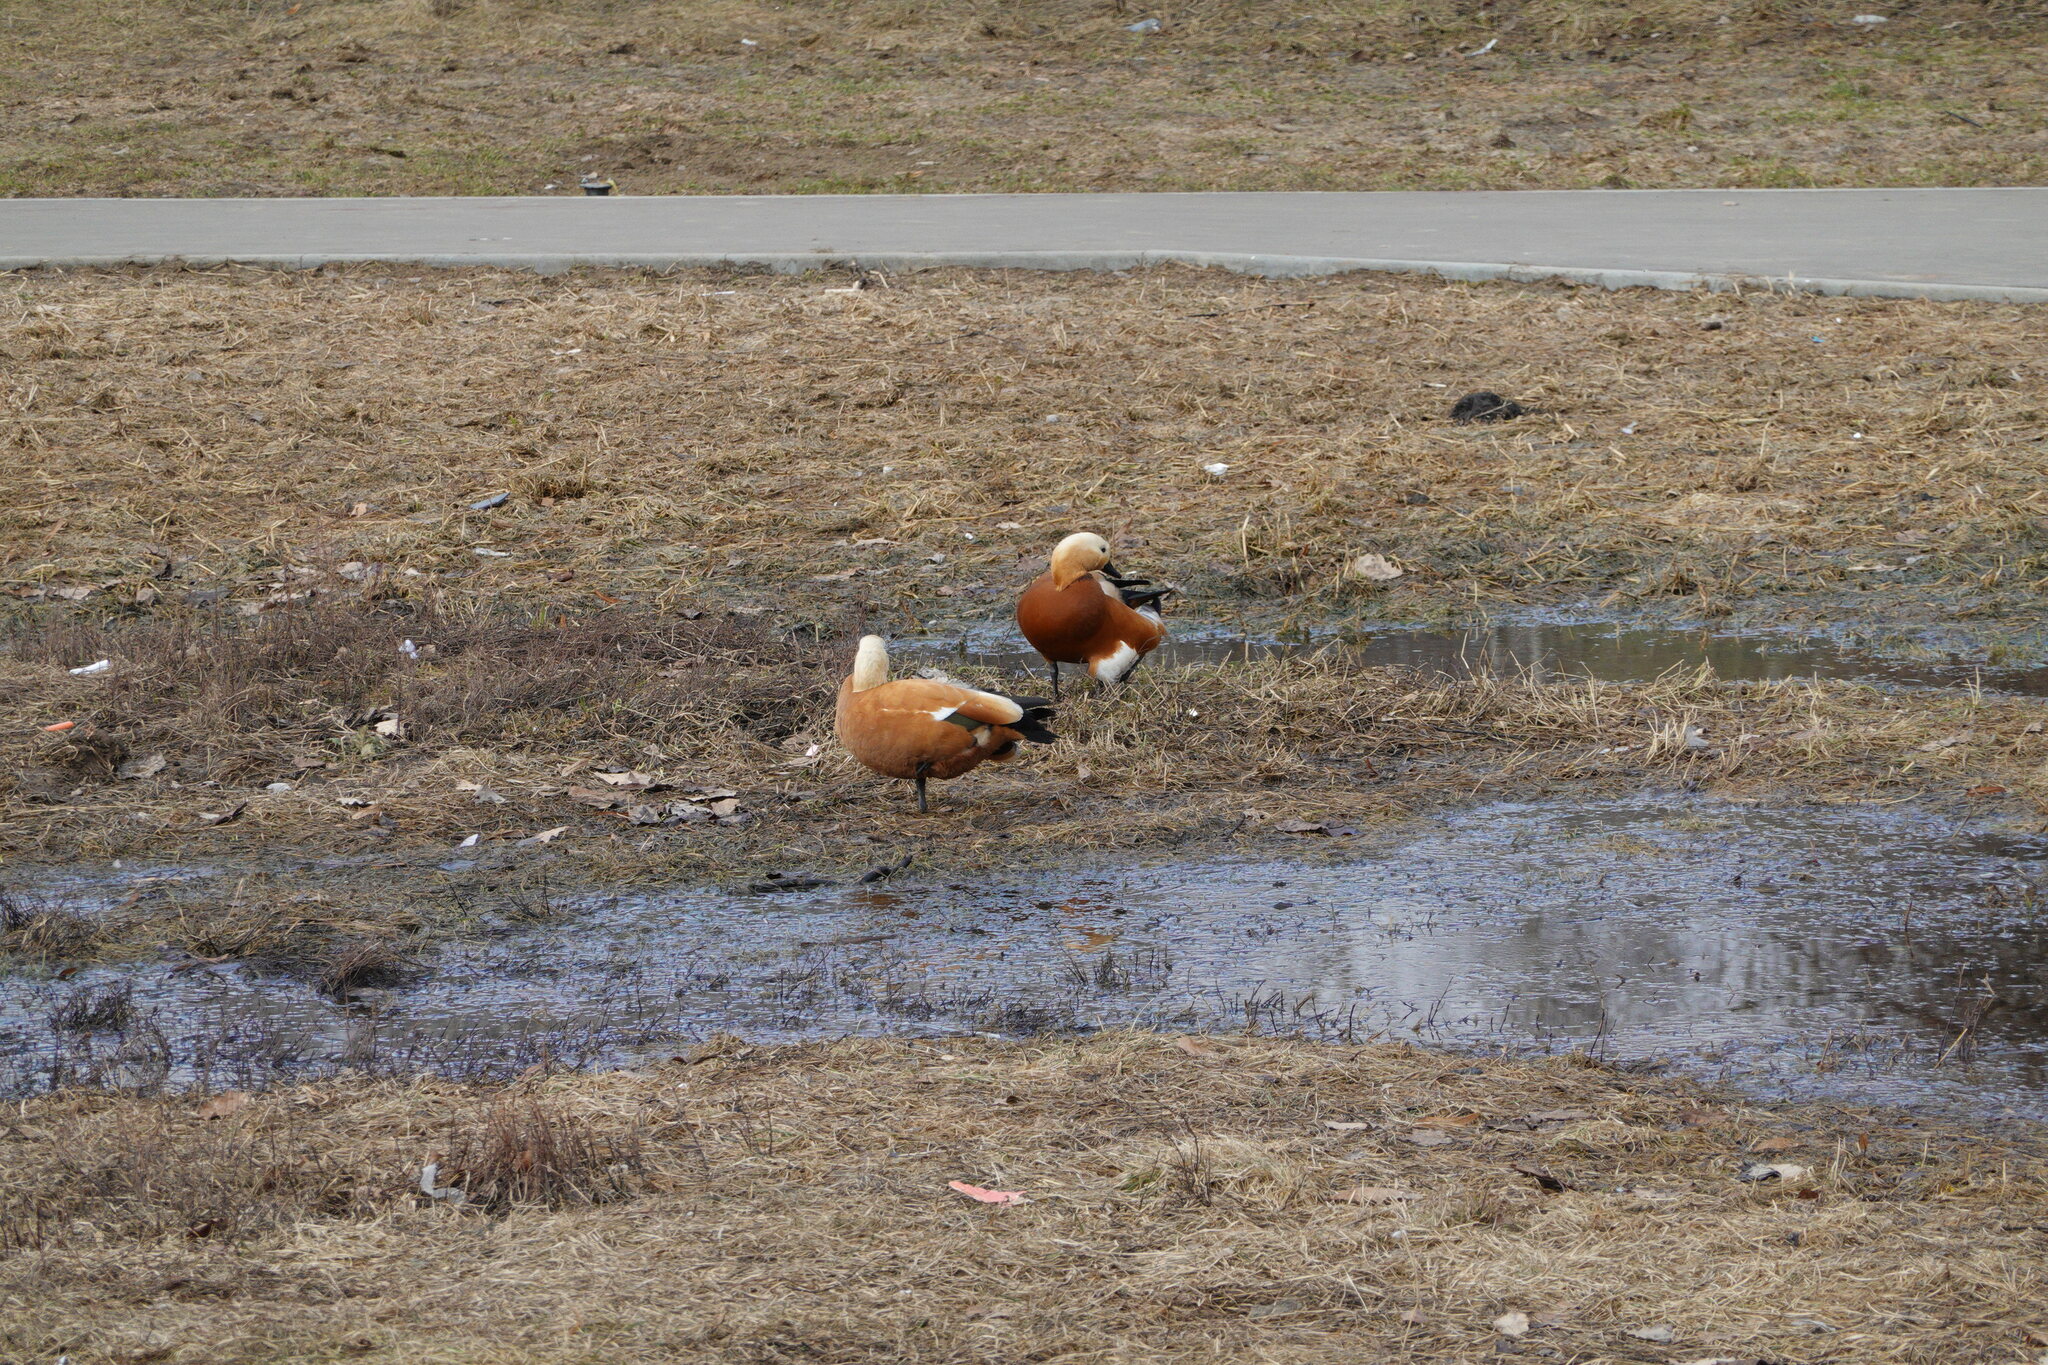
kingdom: Animalia
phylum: Chordata
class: Aves
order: Anseriformes
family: Anatidae
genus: Tadorna
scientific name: Tadorna ferruginea
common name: Ruddy shelduck
